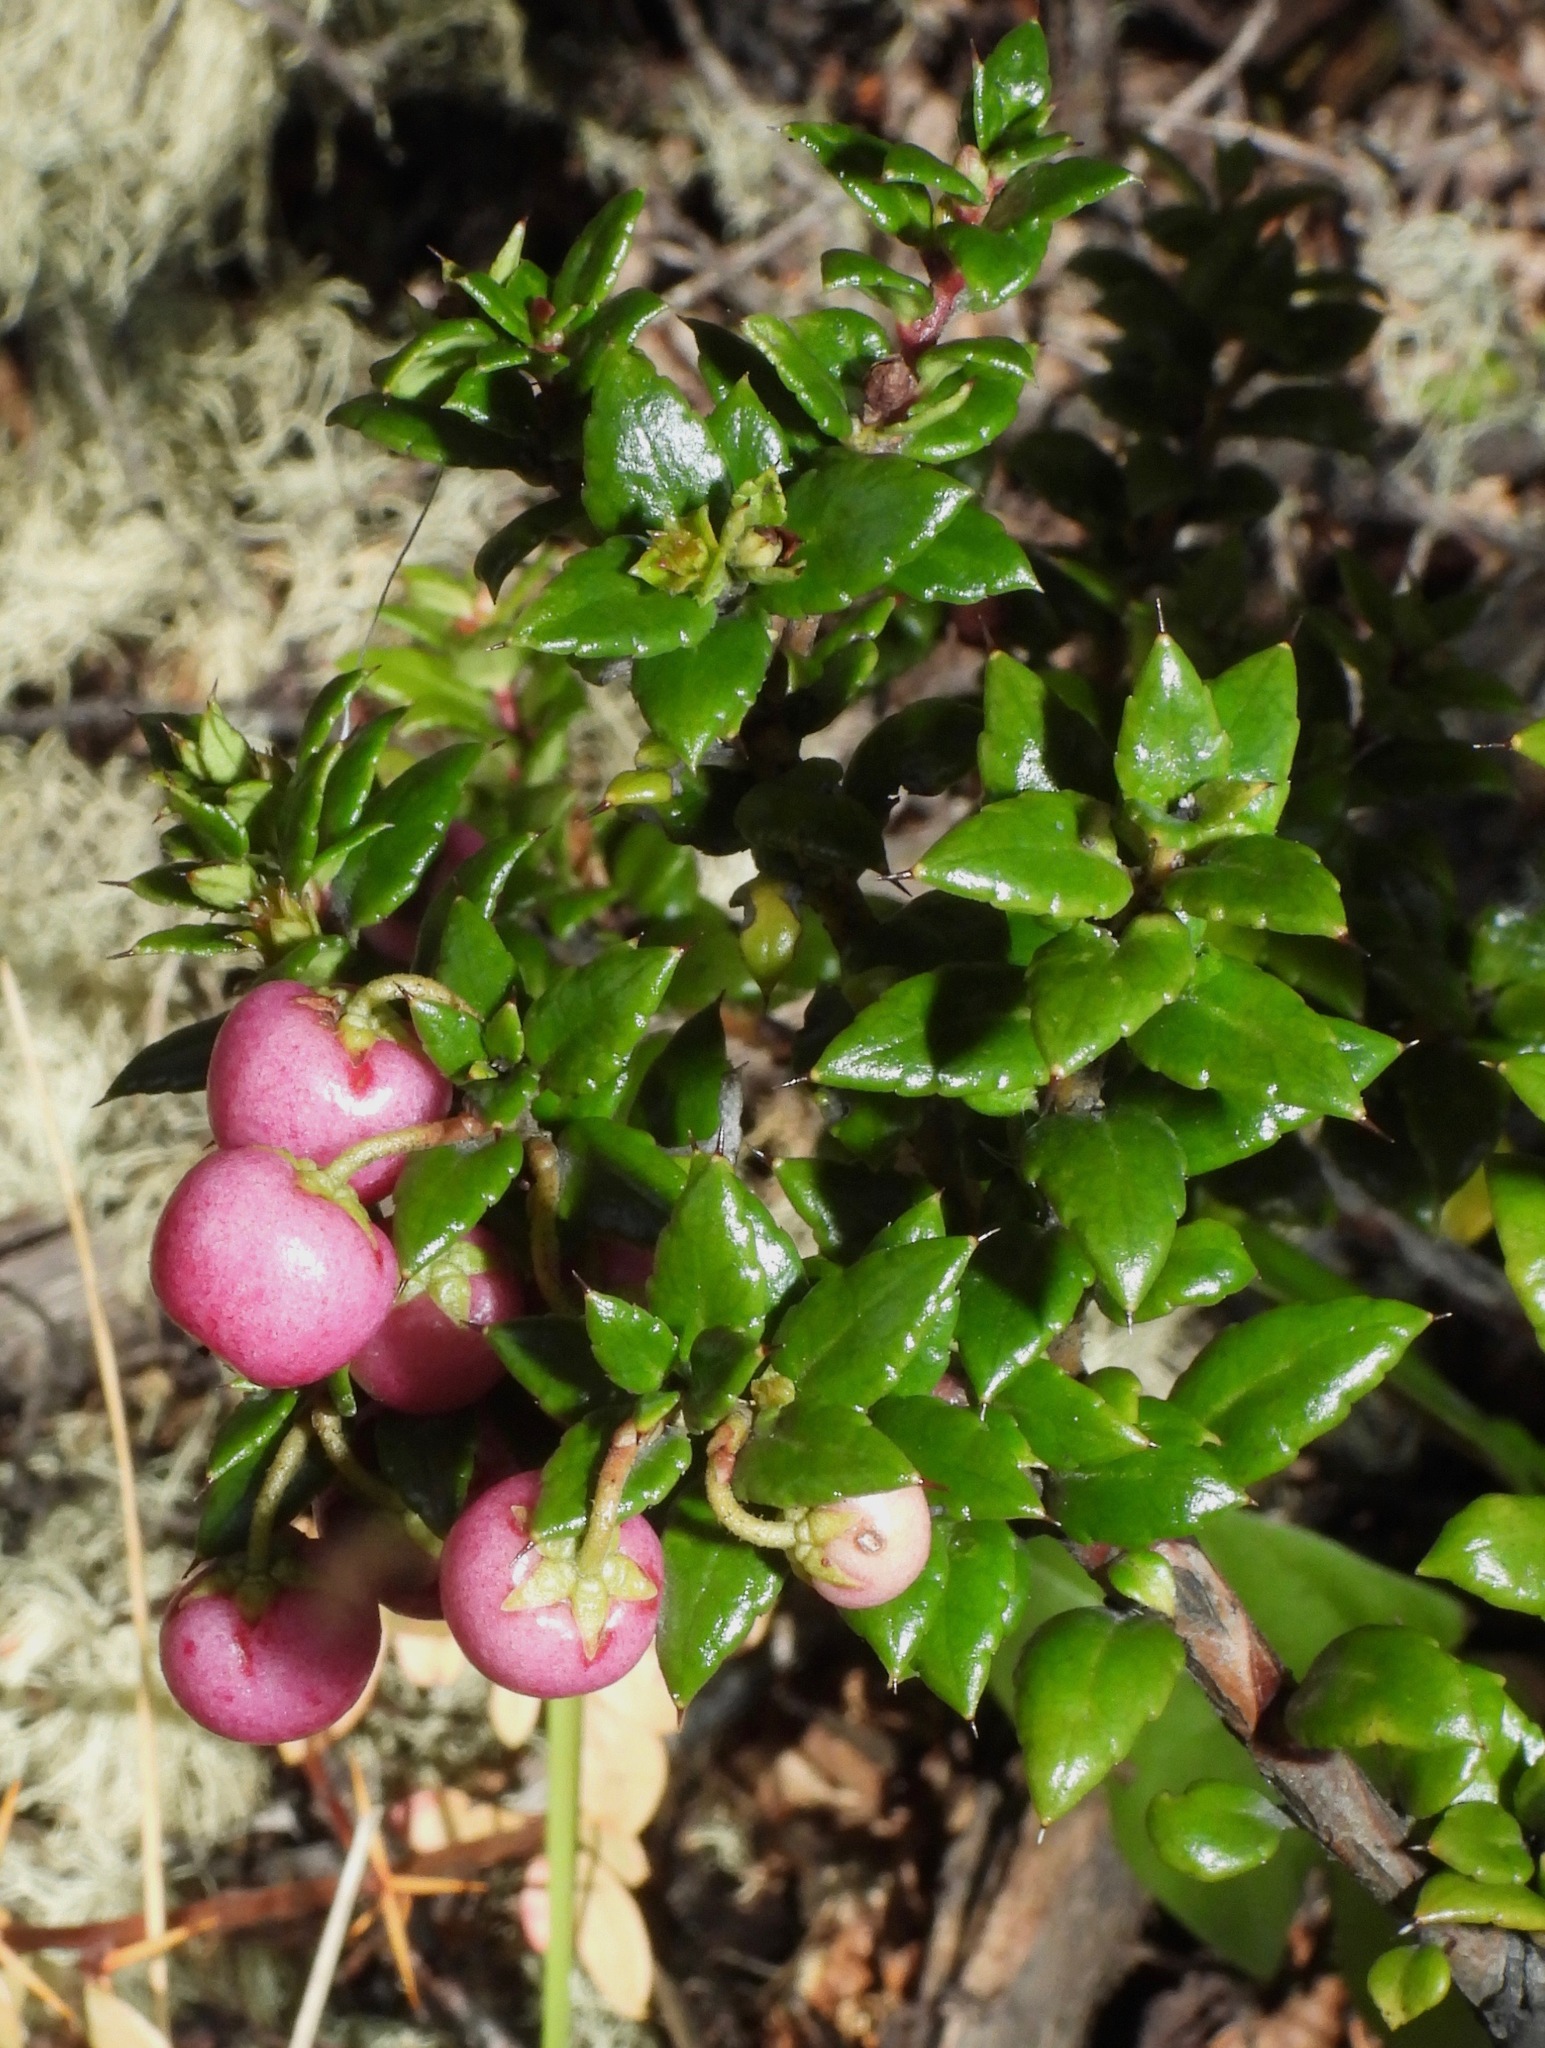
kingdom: Plantae
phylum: Tracheophyta
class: Magnoliopsida
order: Ericales
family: Ericaceae
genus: Gaultheria
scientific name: Gaultheria mucronata
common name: Prickly heath
